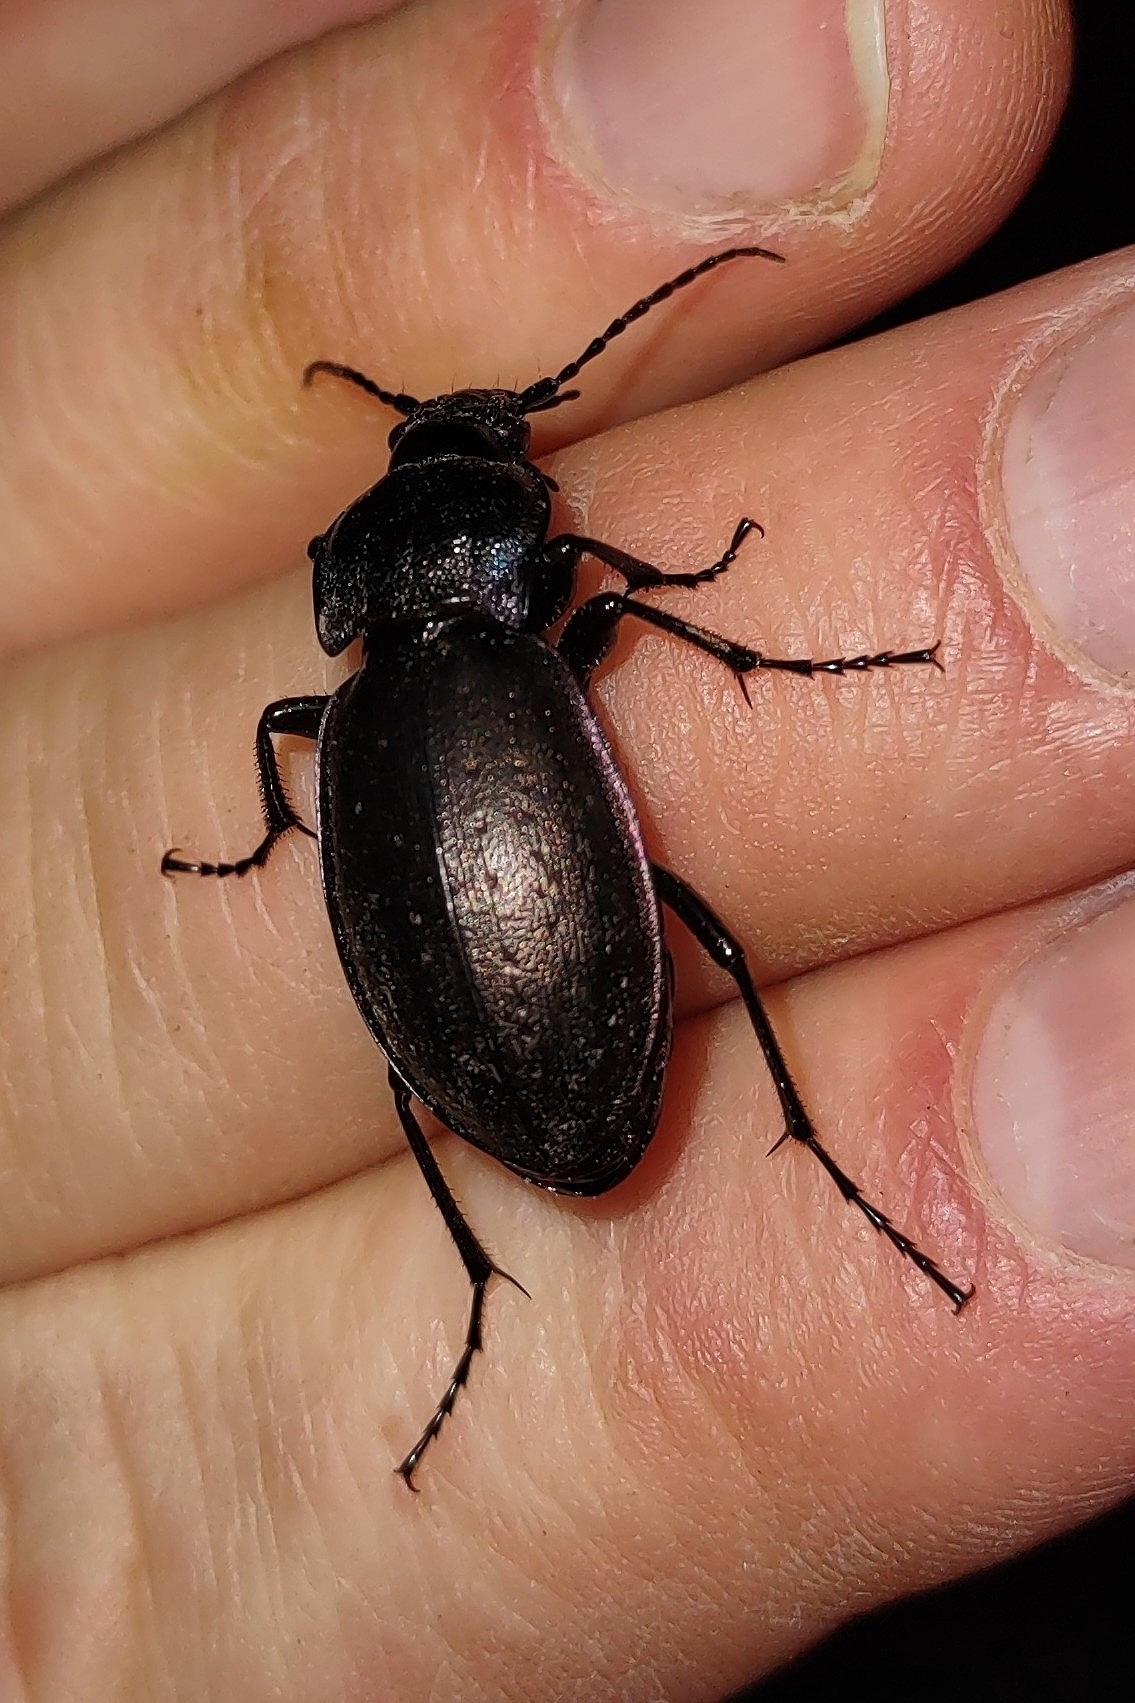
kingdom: Animalia
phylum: Arthropoda
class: Insecta
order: Coleoptera
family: Carabidae
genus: Carabus
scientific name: Carabus nemoralis
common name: European ground beetle
